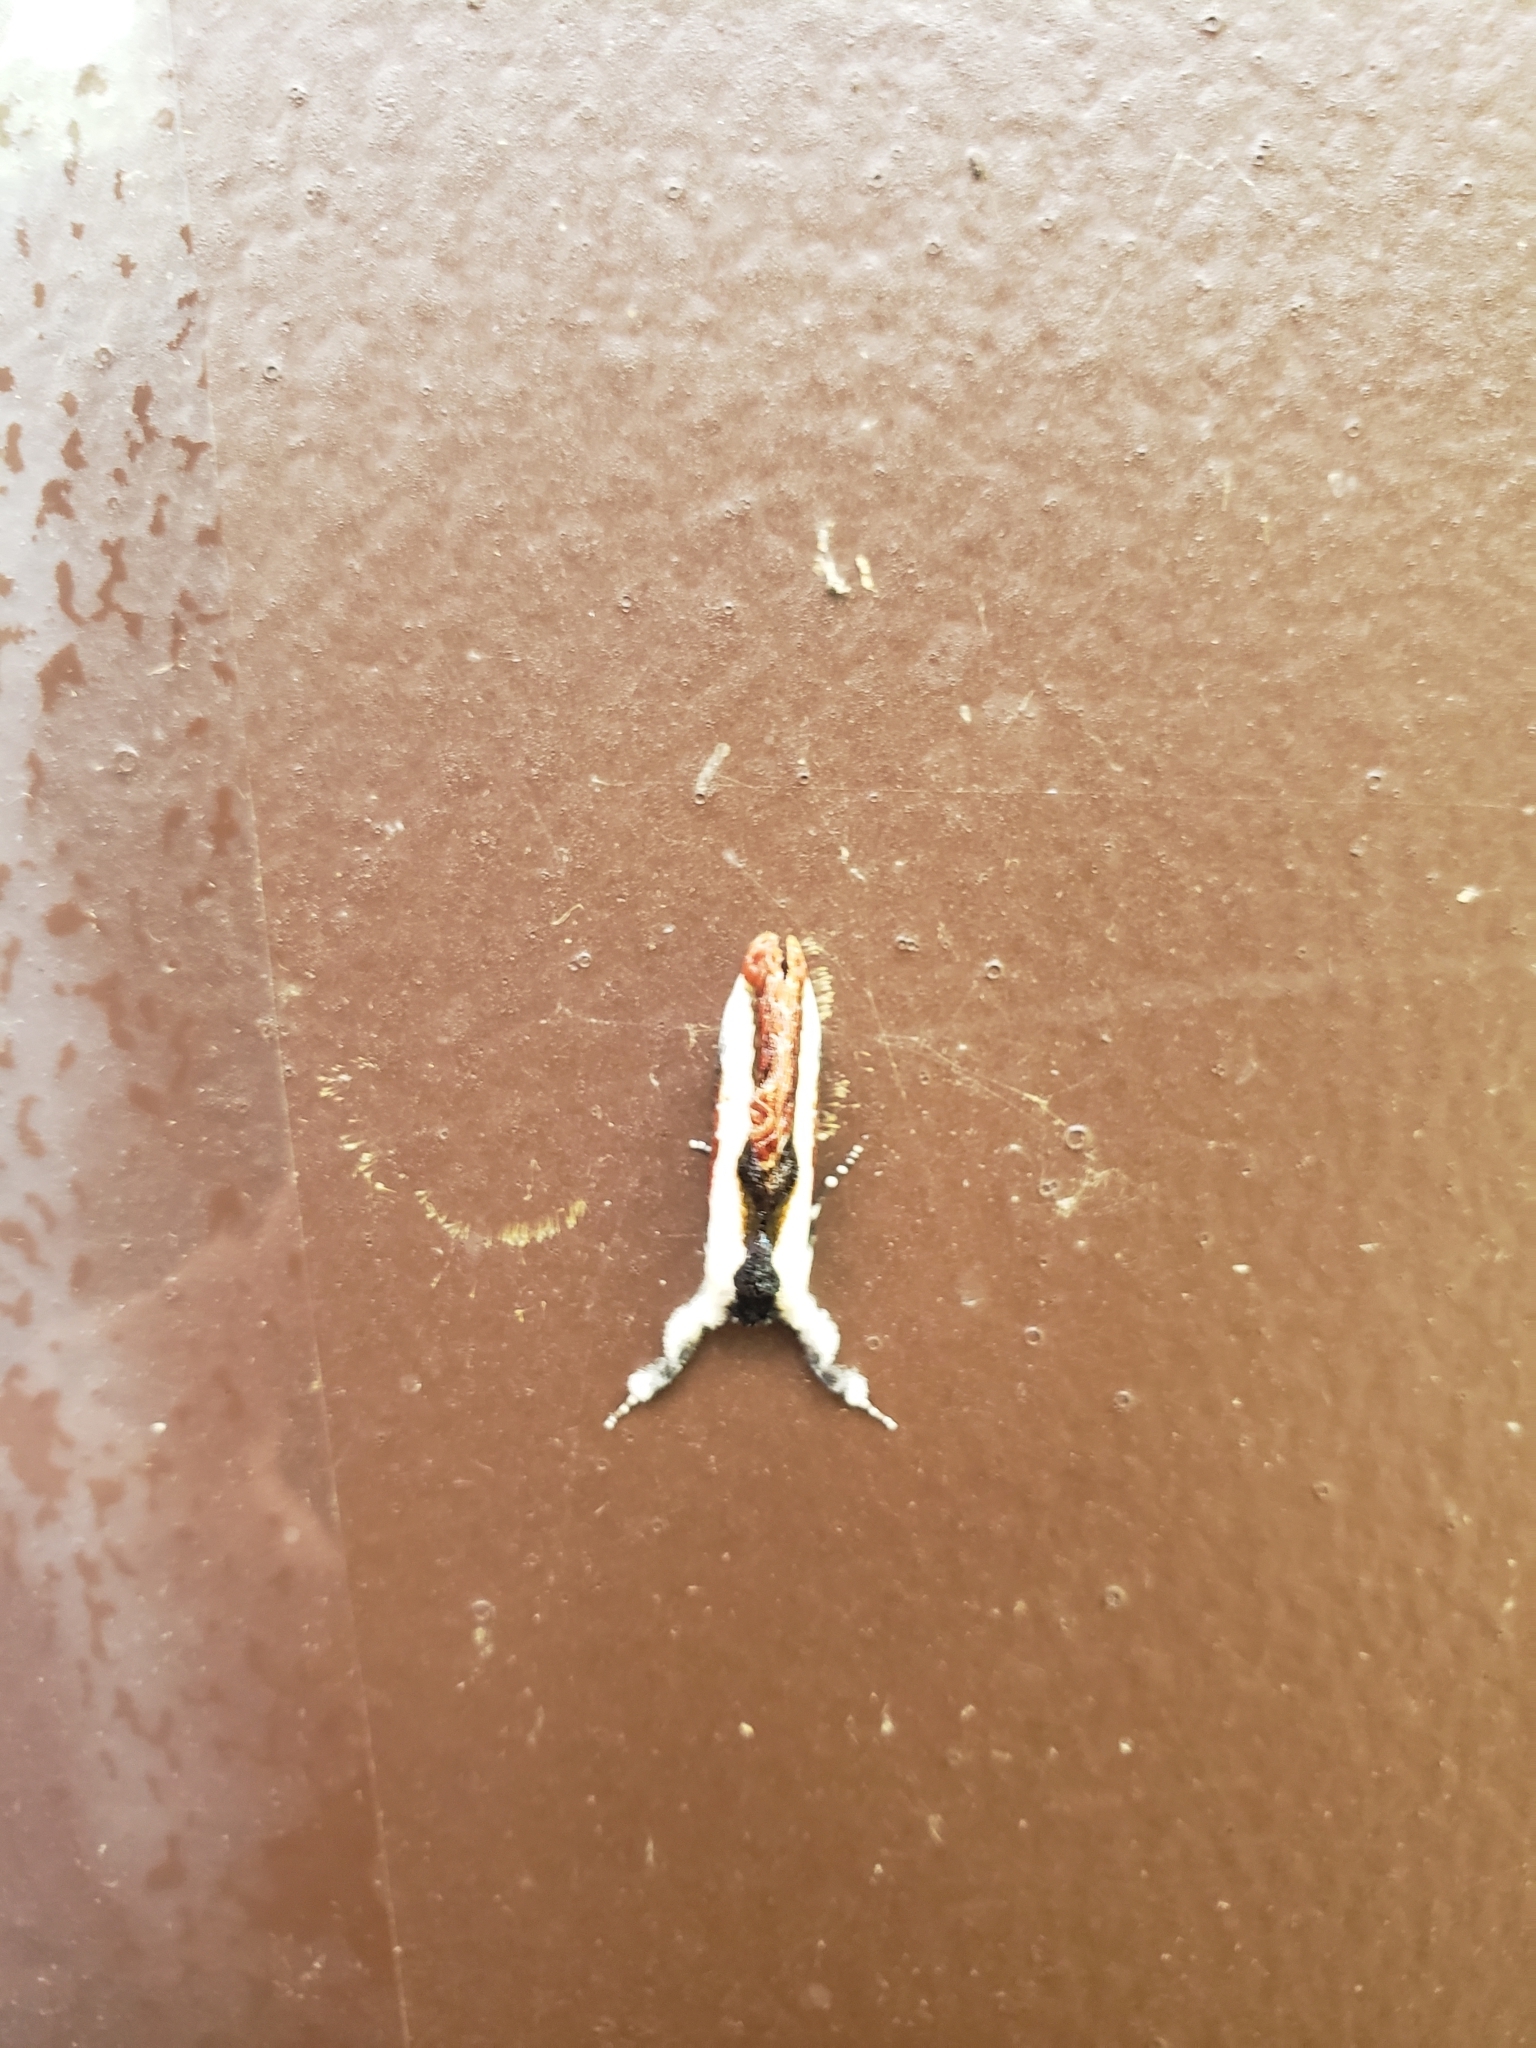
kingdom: Animalia
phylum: Arthropoda
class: Insecta
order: Lepidoptera
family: Noctuidae
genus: Eudryas
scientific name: Eudryas unio
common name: Pearly wood-nymph
